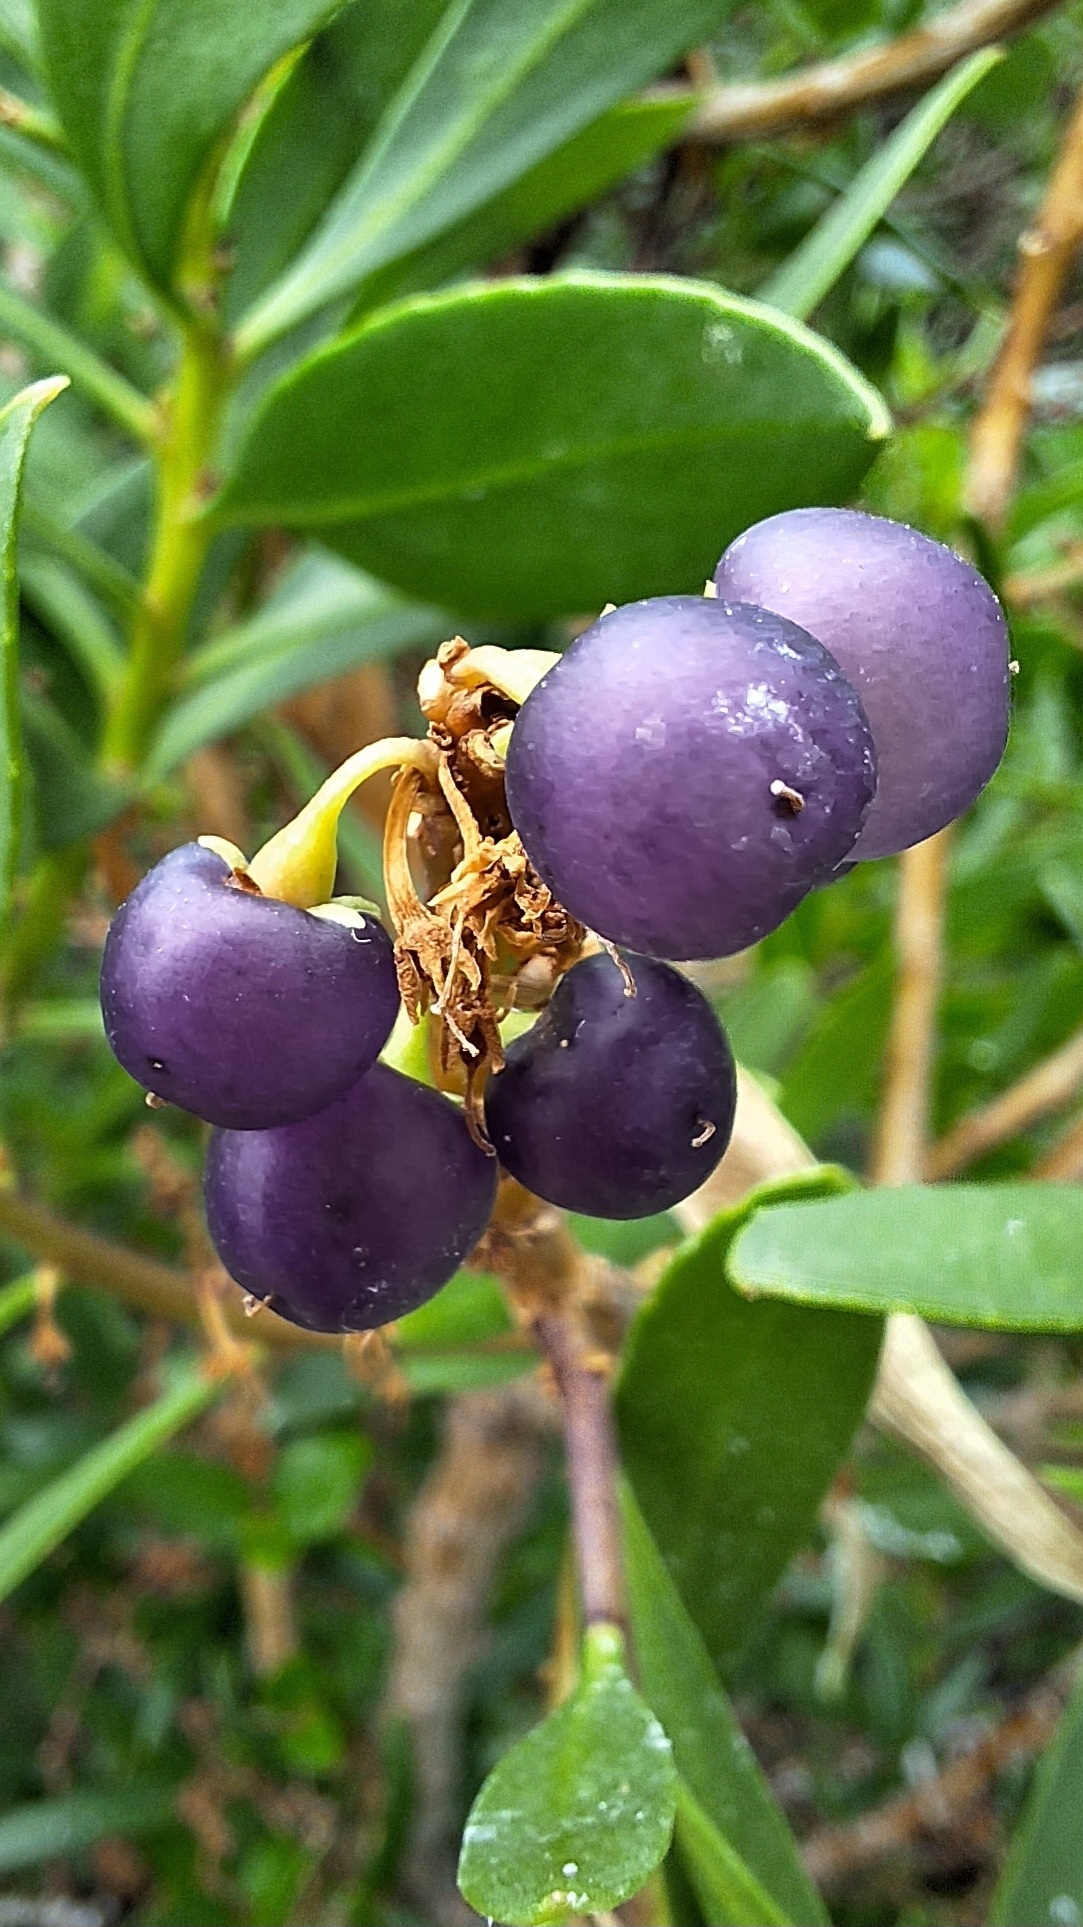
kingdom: Plantae
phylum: Tracheophyta
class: Magnoliopsida
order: Lamiales
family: Scrophulariaceae
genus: Myoporum
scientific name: Myoporum insulare
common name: Common boobialla
